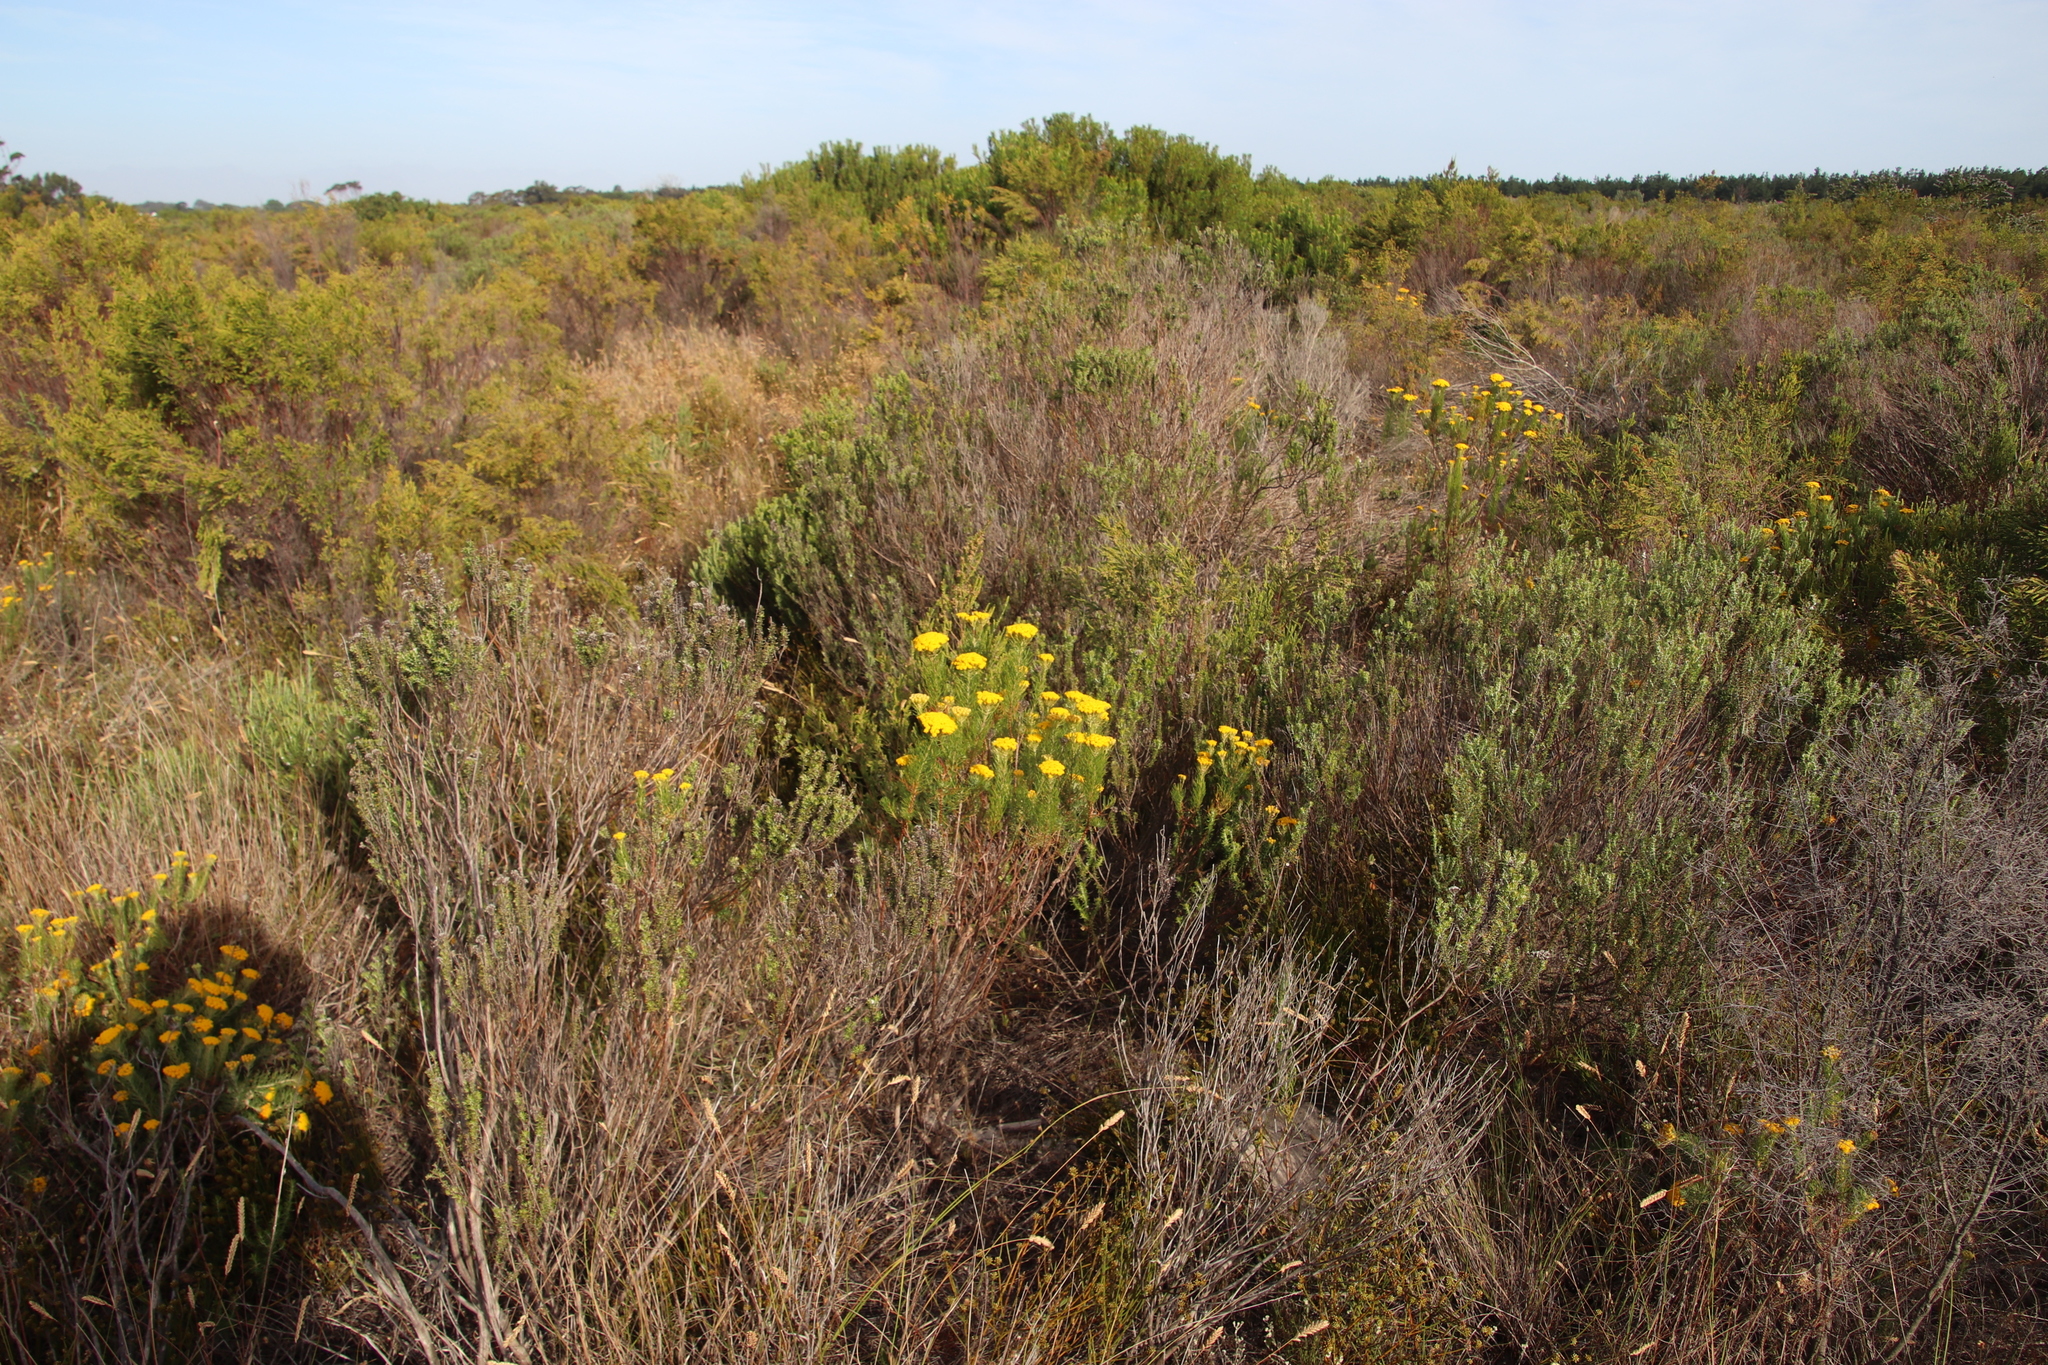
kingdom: Plantae
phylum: Tracheophyta
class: Magnoliopsida
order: Asterales
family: Asteraceae
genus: Athanasia
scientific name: Athanasia crithmifolia
